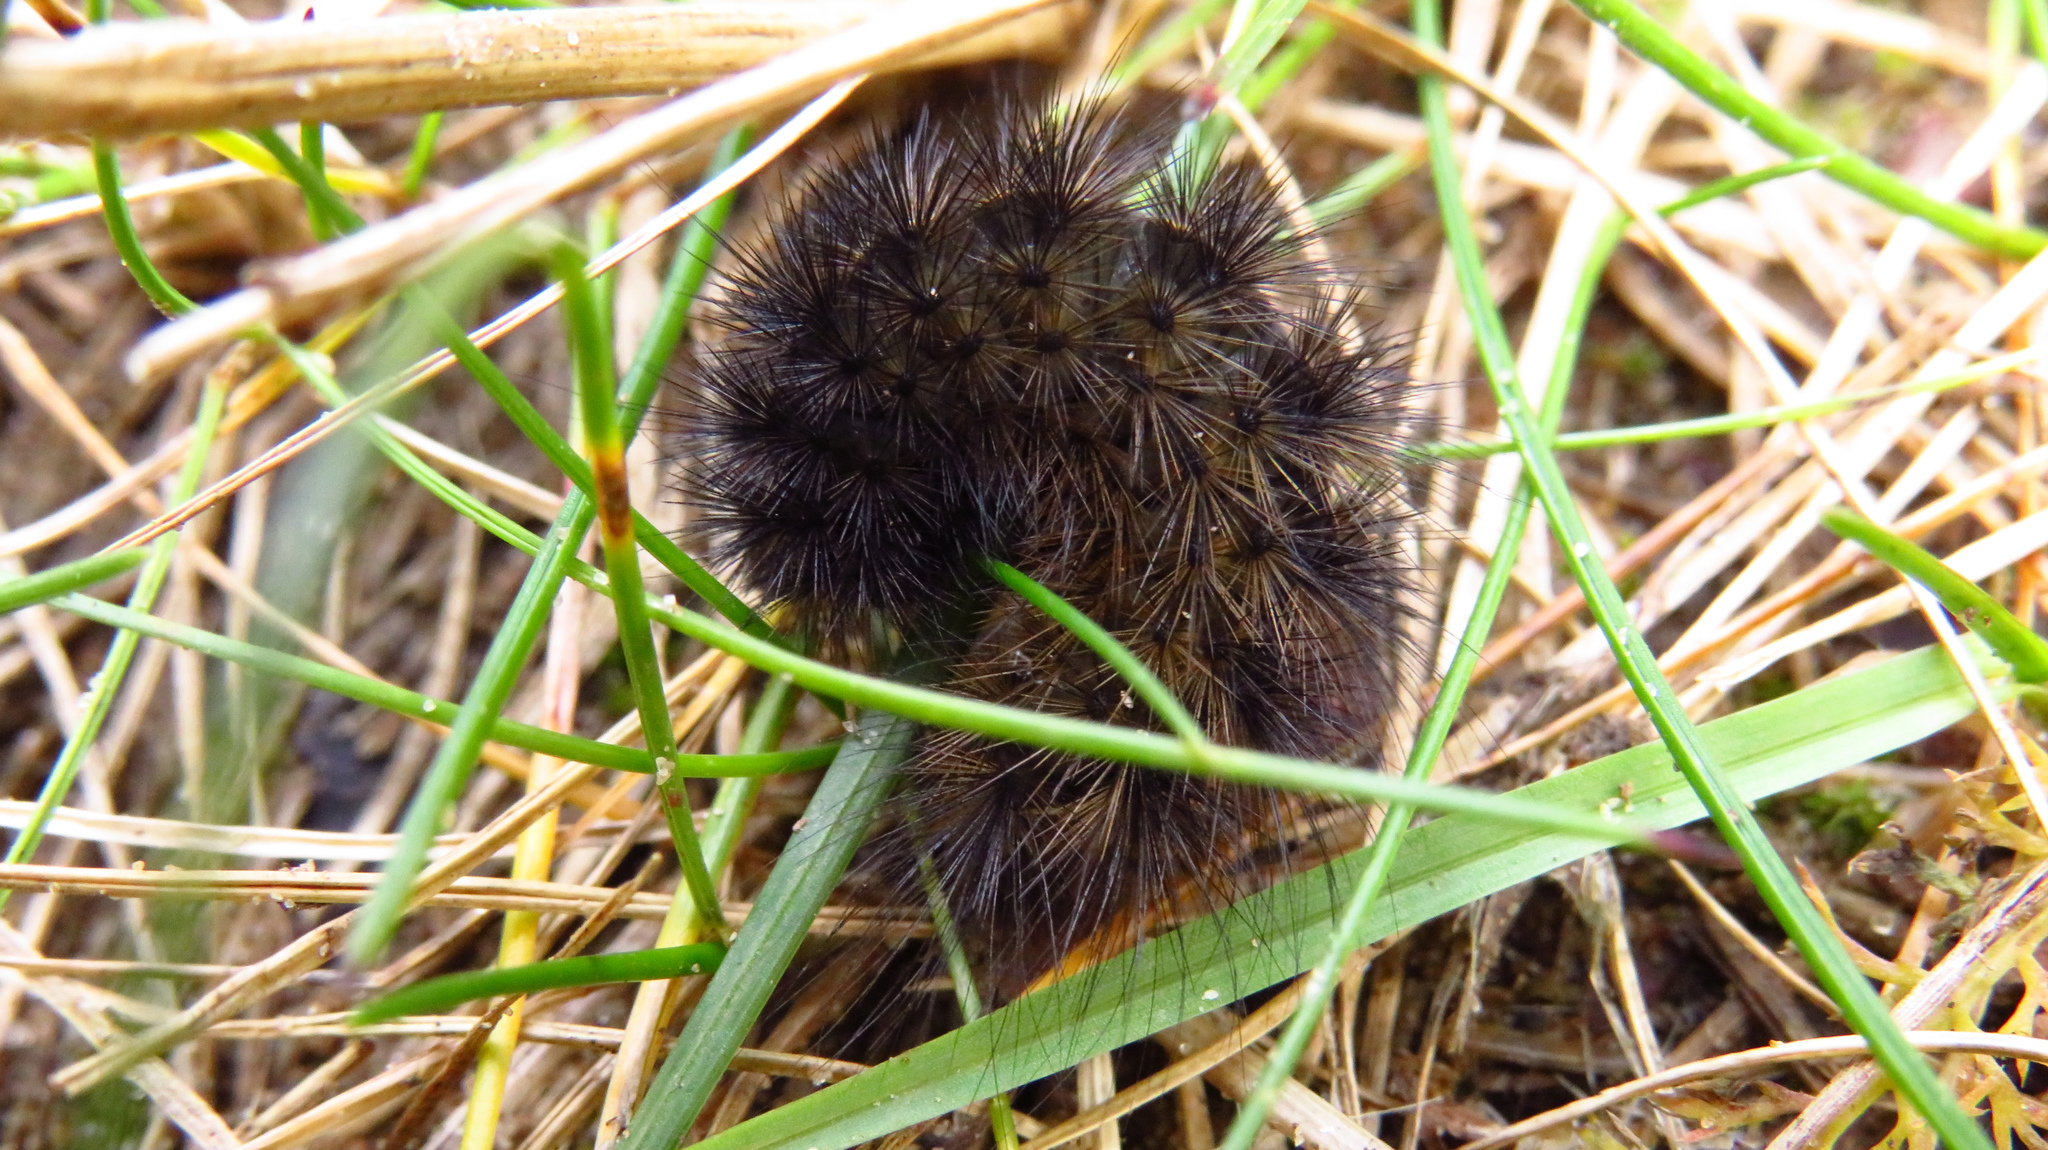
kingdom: Animalia
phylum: Arthropoda
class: Insecta
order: Lepidoptera
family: Erebidae
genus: Phragmatobia
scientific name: Phragmatobia fuliginosa
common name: Ruby tiger
